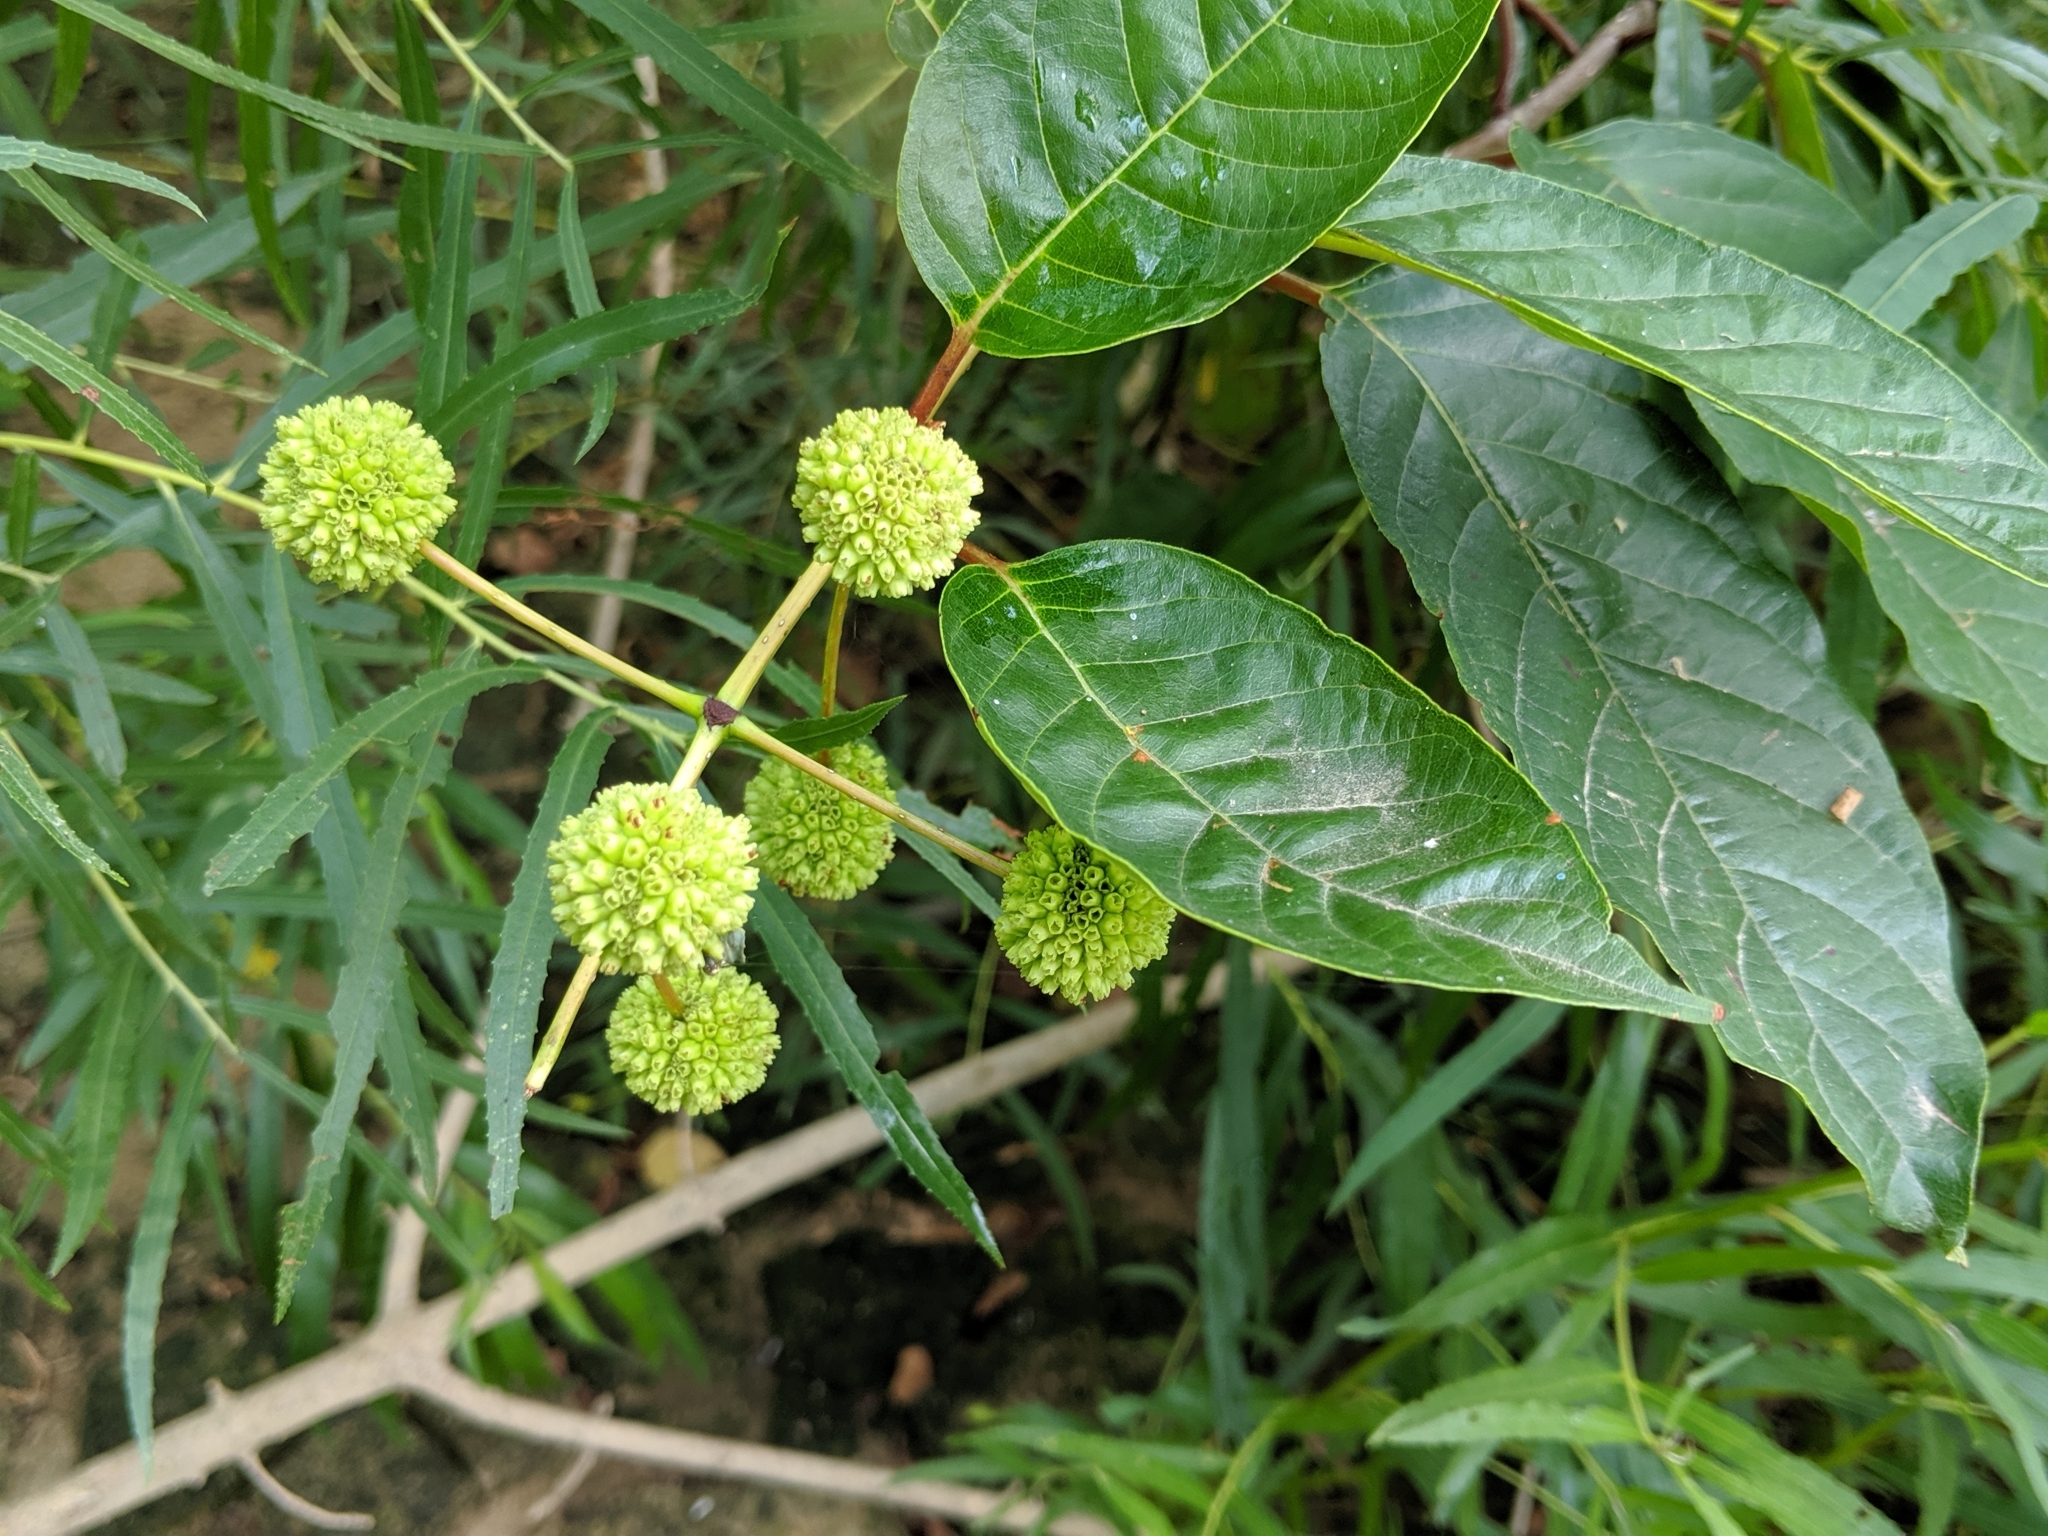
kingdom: Plantae
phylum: Tracheophyta
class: Magnoliopsida
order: Gentianales
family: Rubiaceae
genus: Cephalanthus
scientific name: Cephalanthus occidentalis
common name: Button-willow
